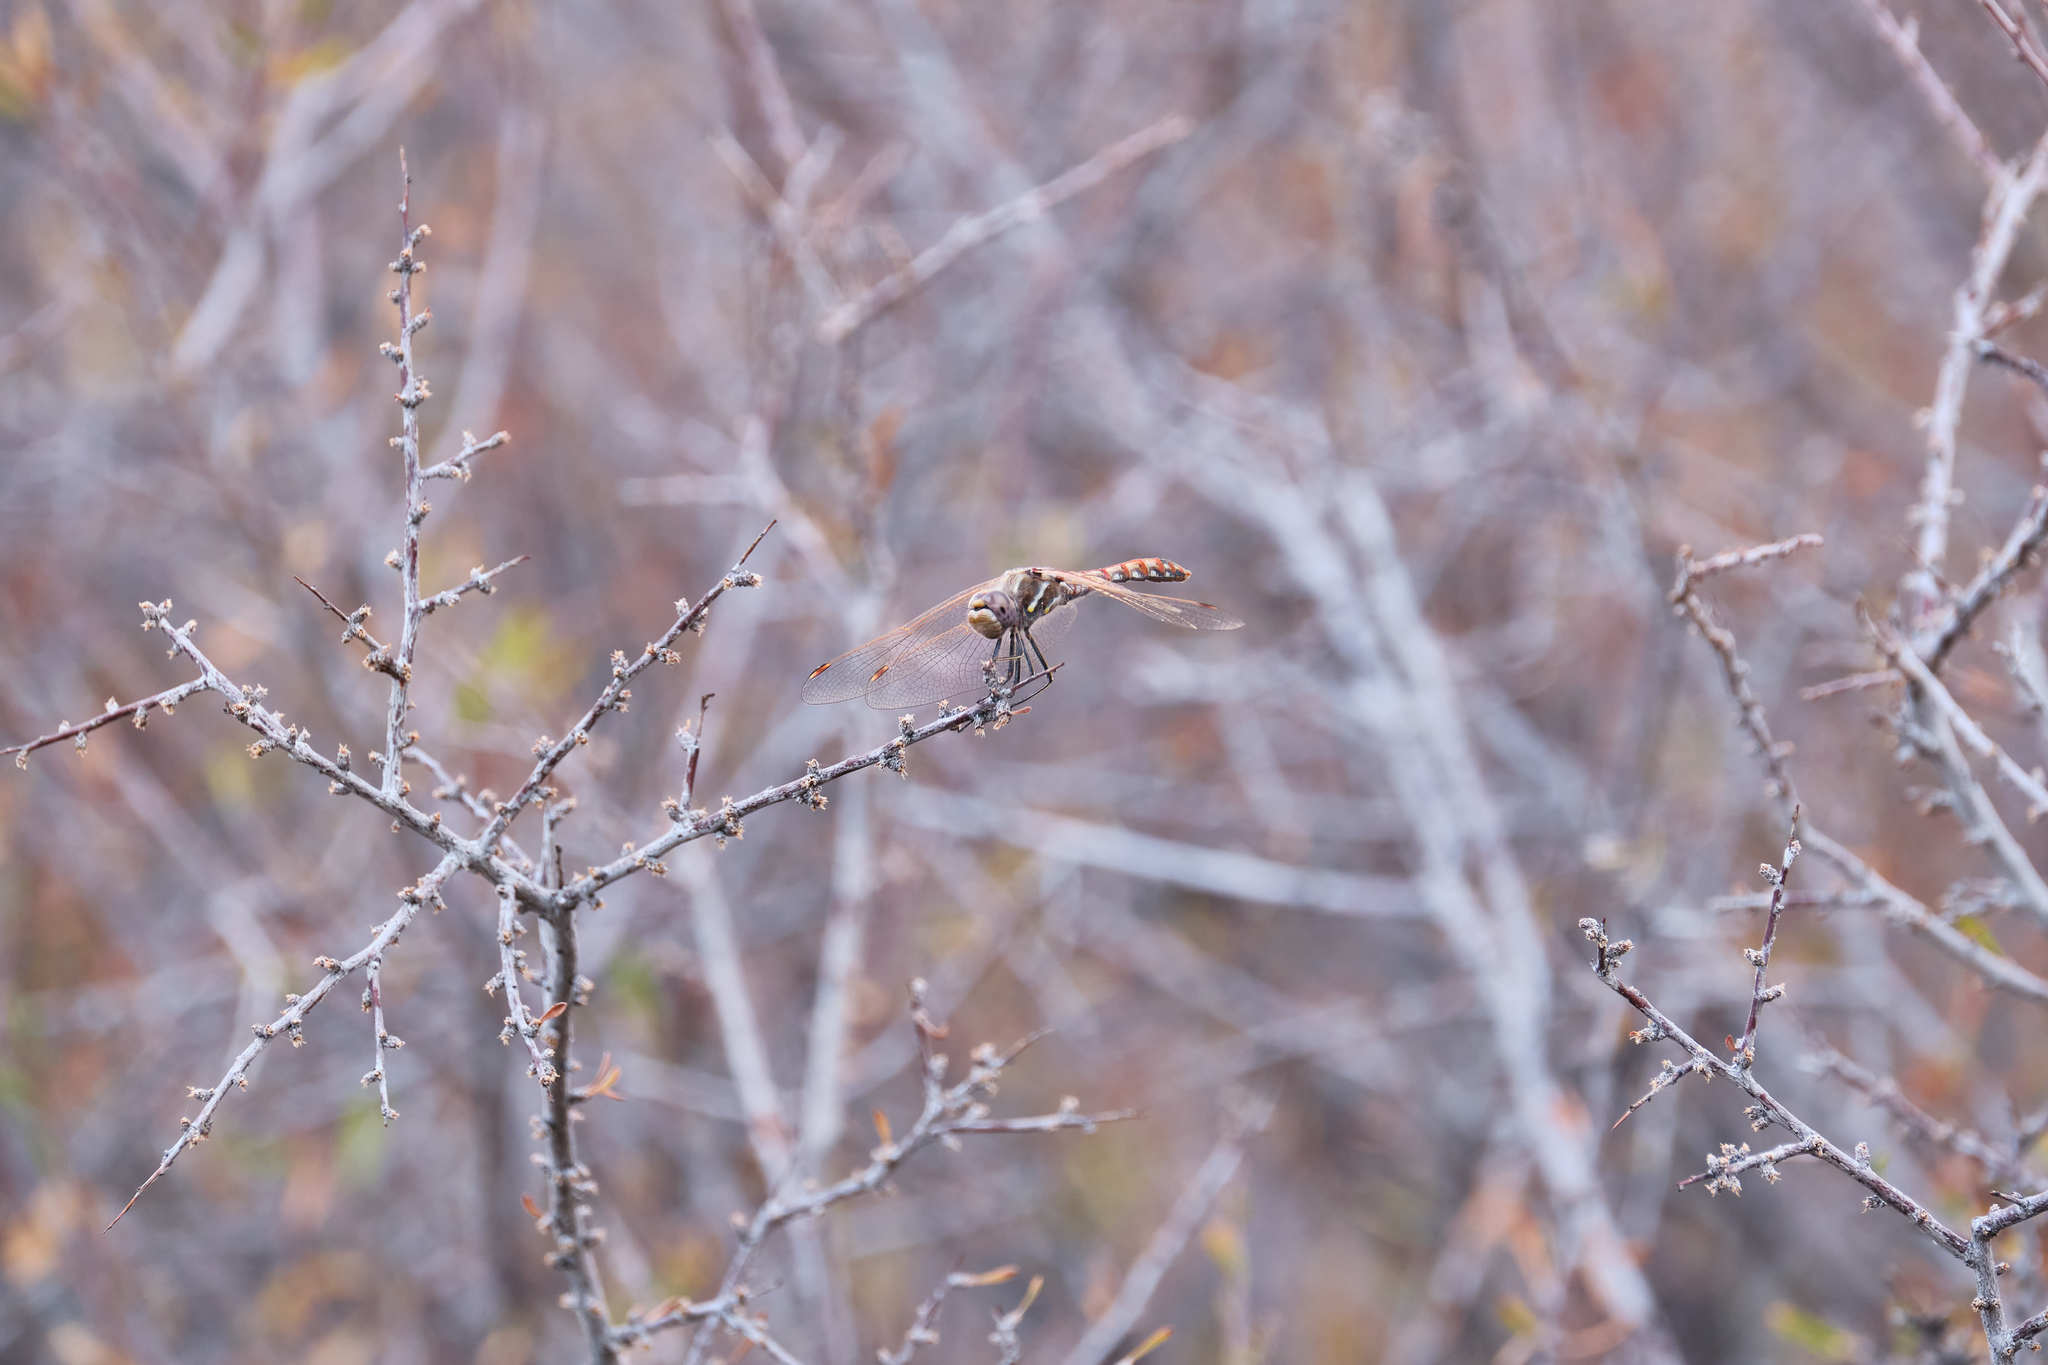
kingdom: Animalia
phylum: Arthropoda
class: Insecta
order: Odonata
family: Libellulidae
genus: Sympetrum
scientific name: Sympetrum corruptum
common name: Variegated meadowhawk
